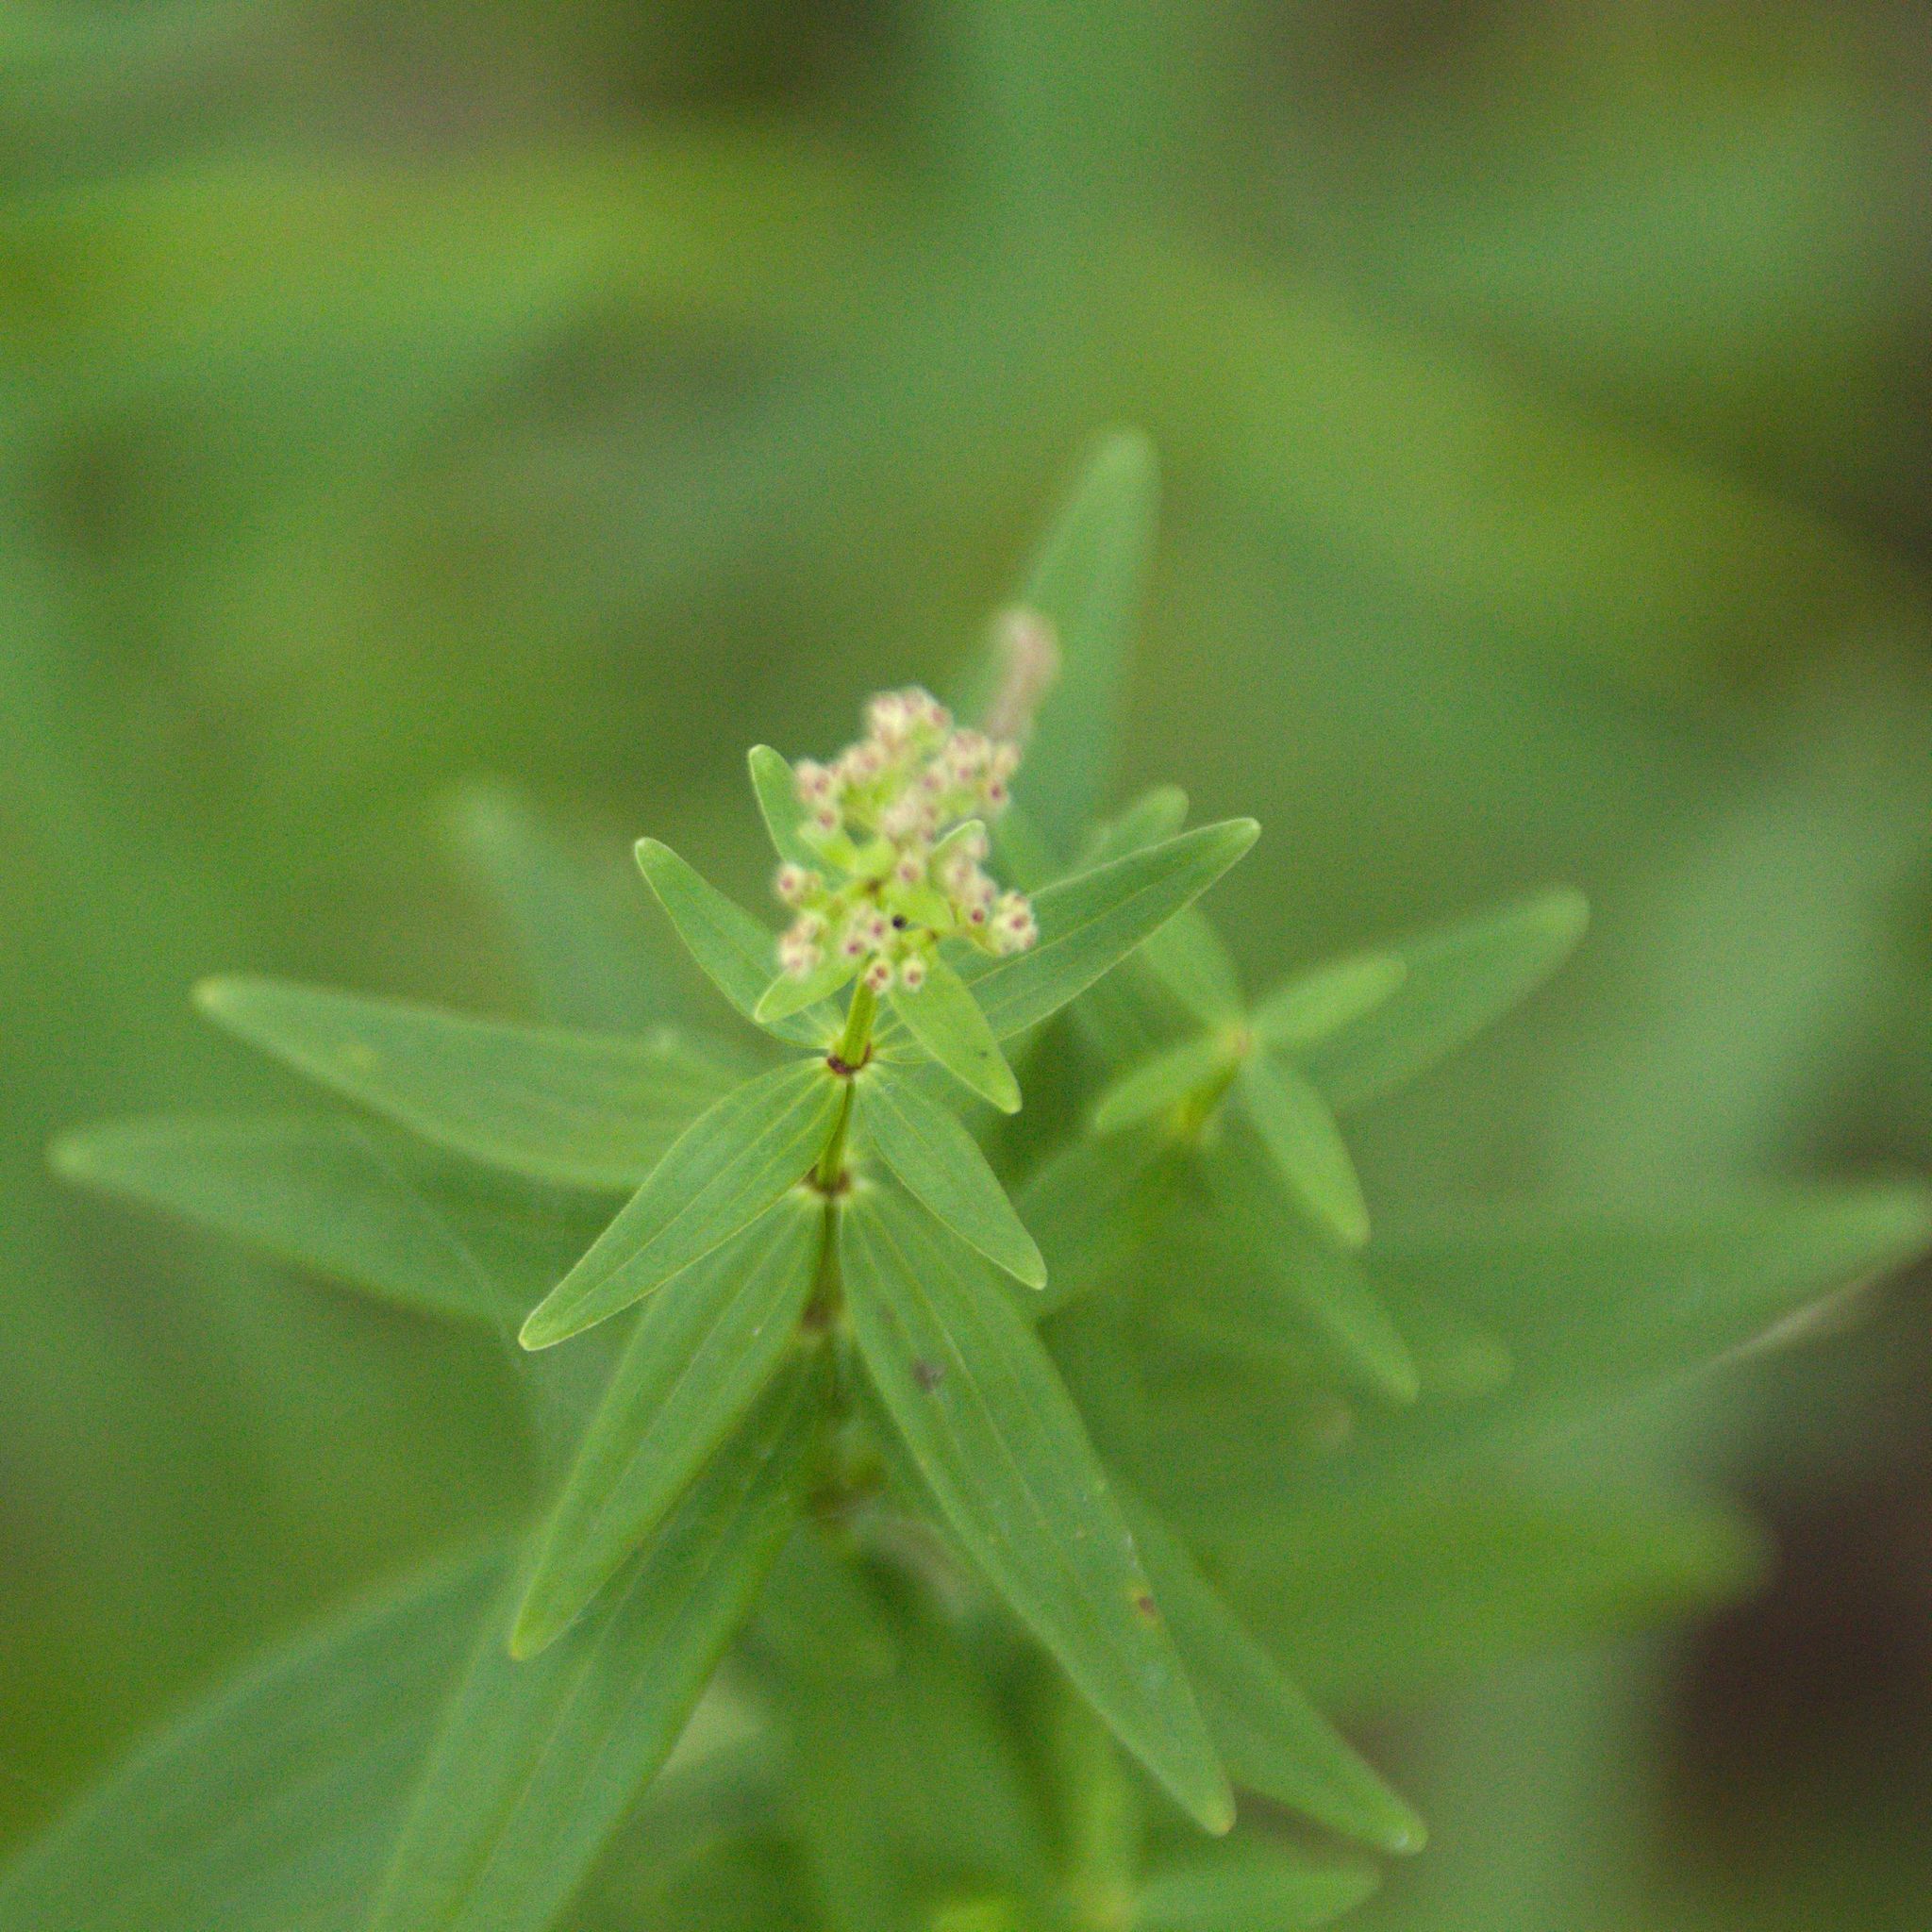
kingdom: Plantae
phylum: Tracheophyta
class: Magnoliopsida
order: Gentianales
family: Rubiaceae
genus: Galium
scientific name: Galium boreale
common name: Northern bedstraw
